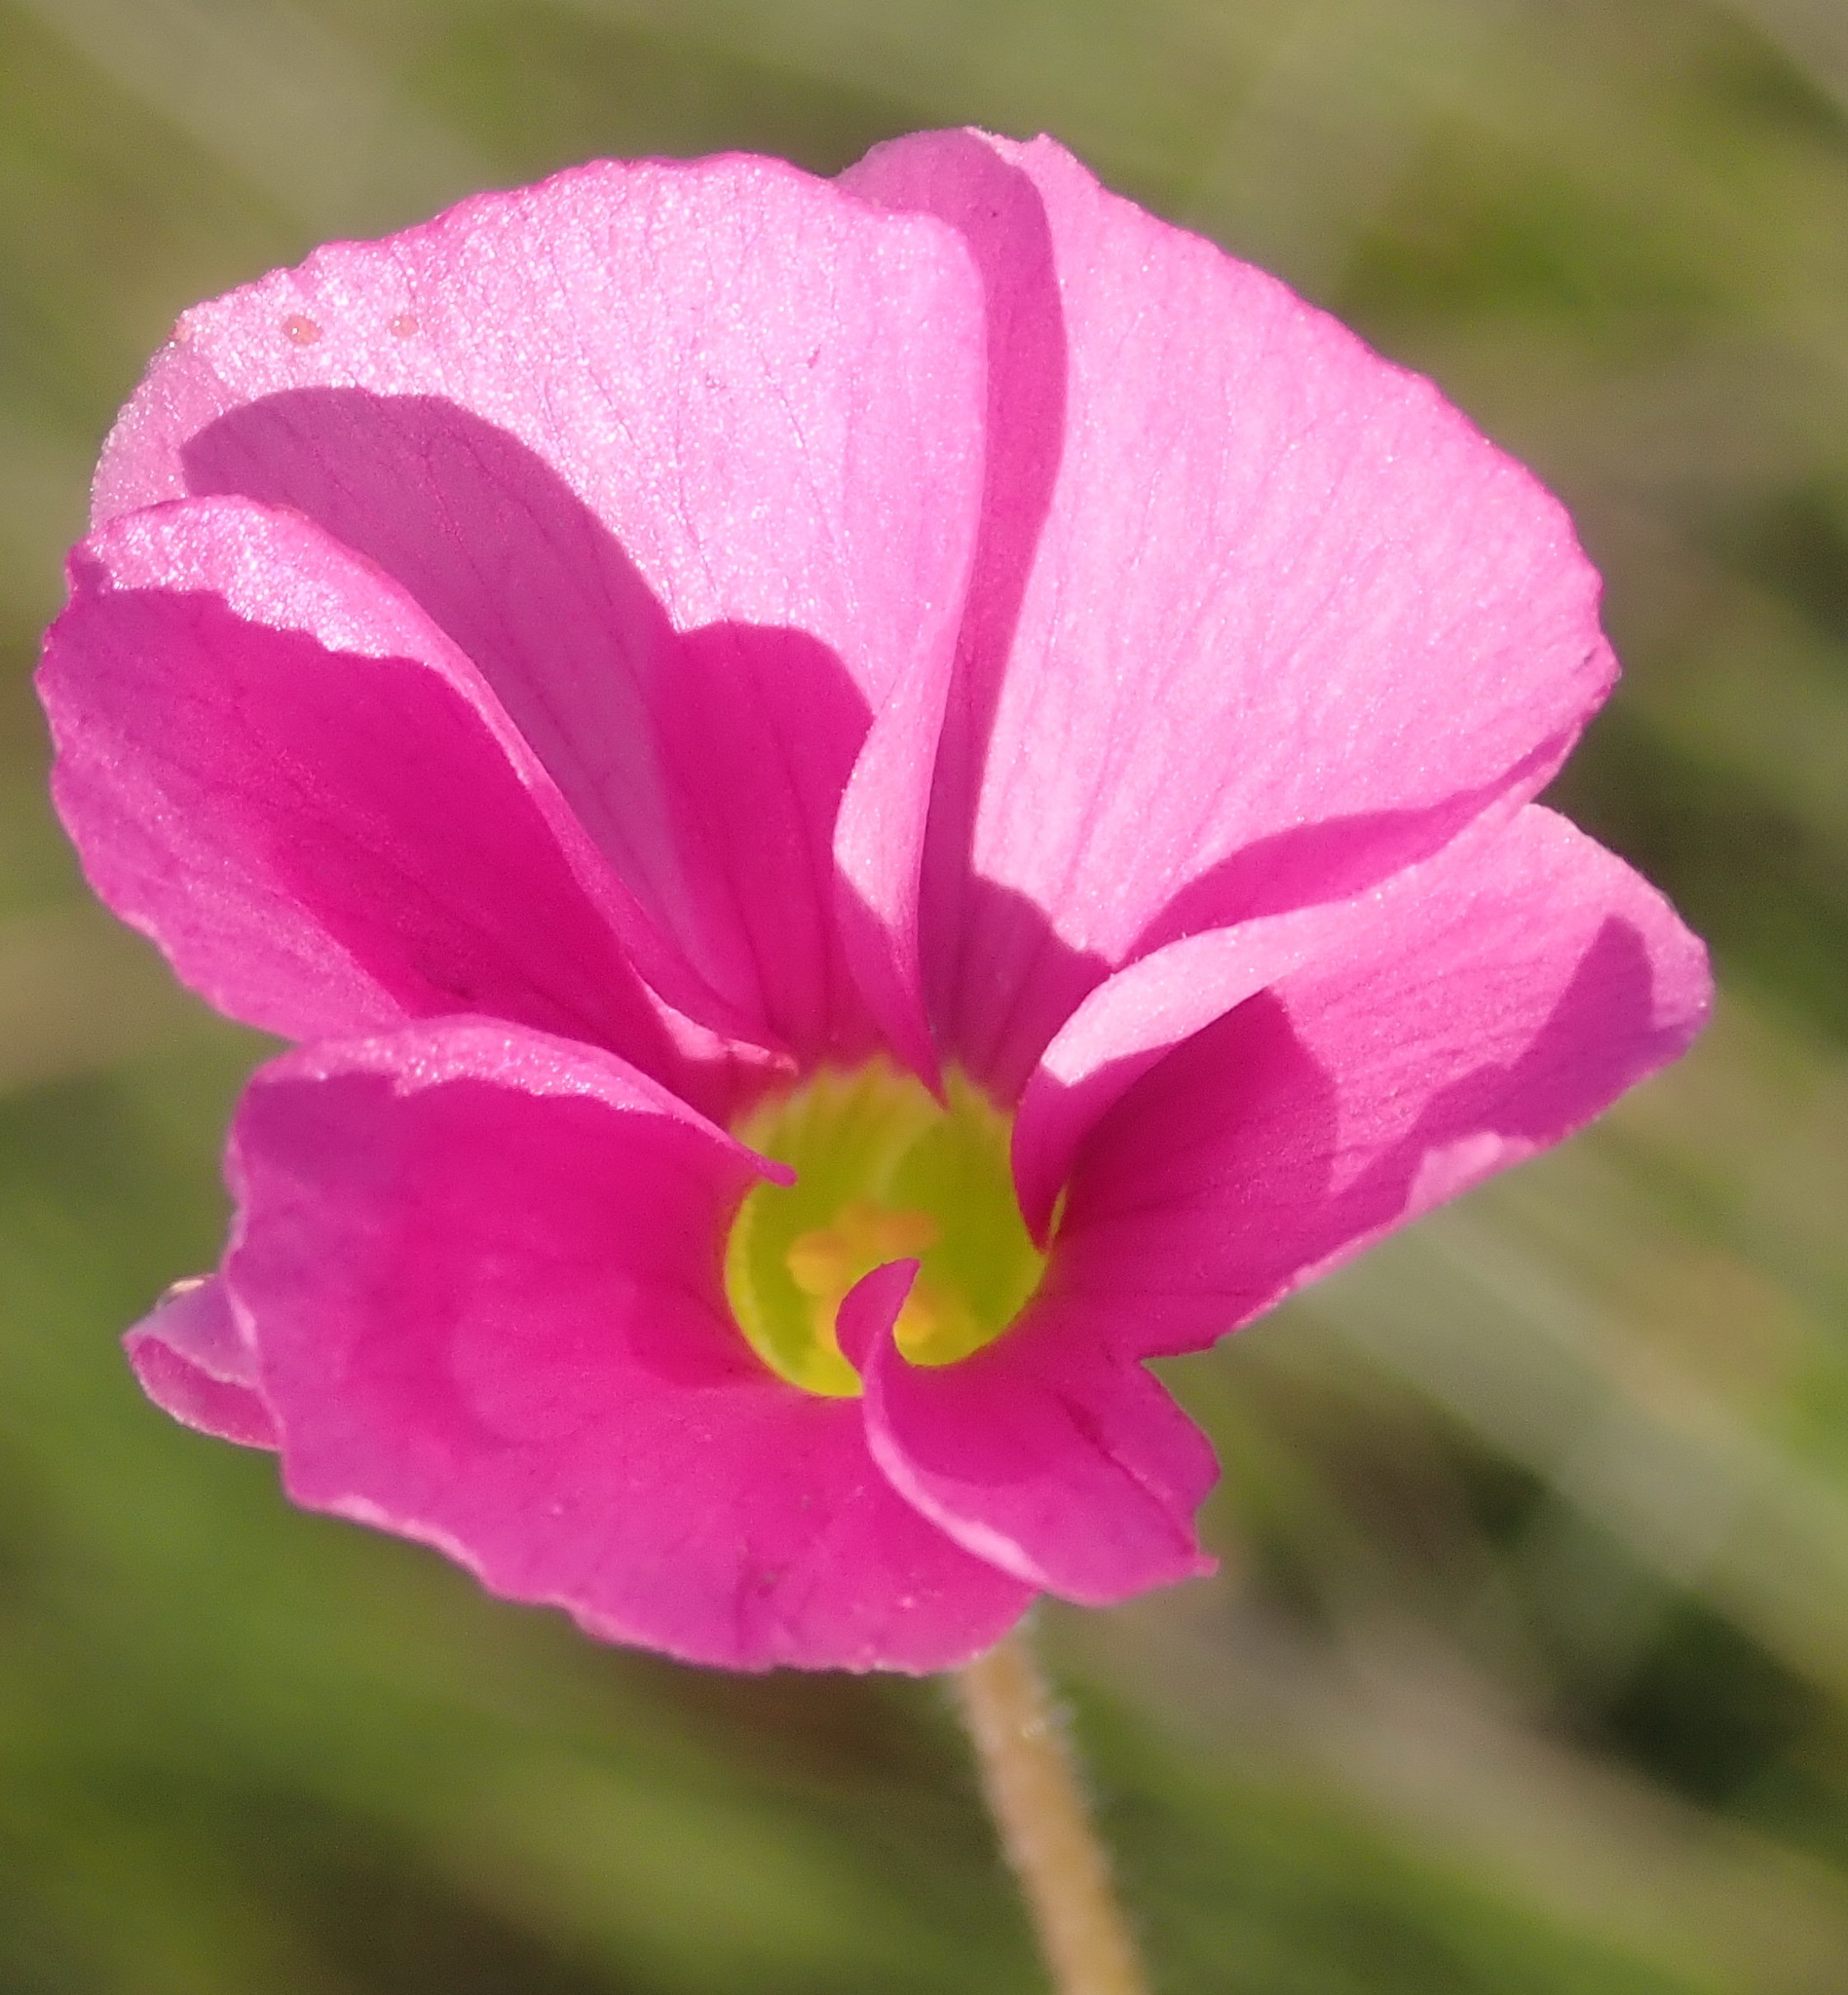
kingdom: Plantae
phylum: Tracheophyta
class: Magnoliopsida
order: Oxalidales
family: Oxalidaceae
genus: Oxalis
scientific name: Oxalis imbricata
